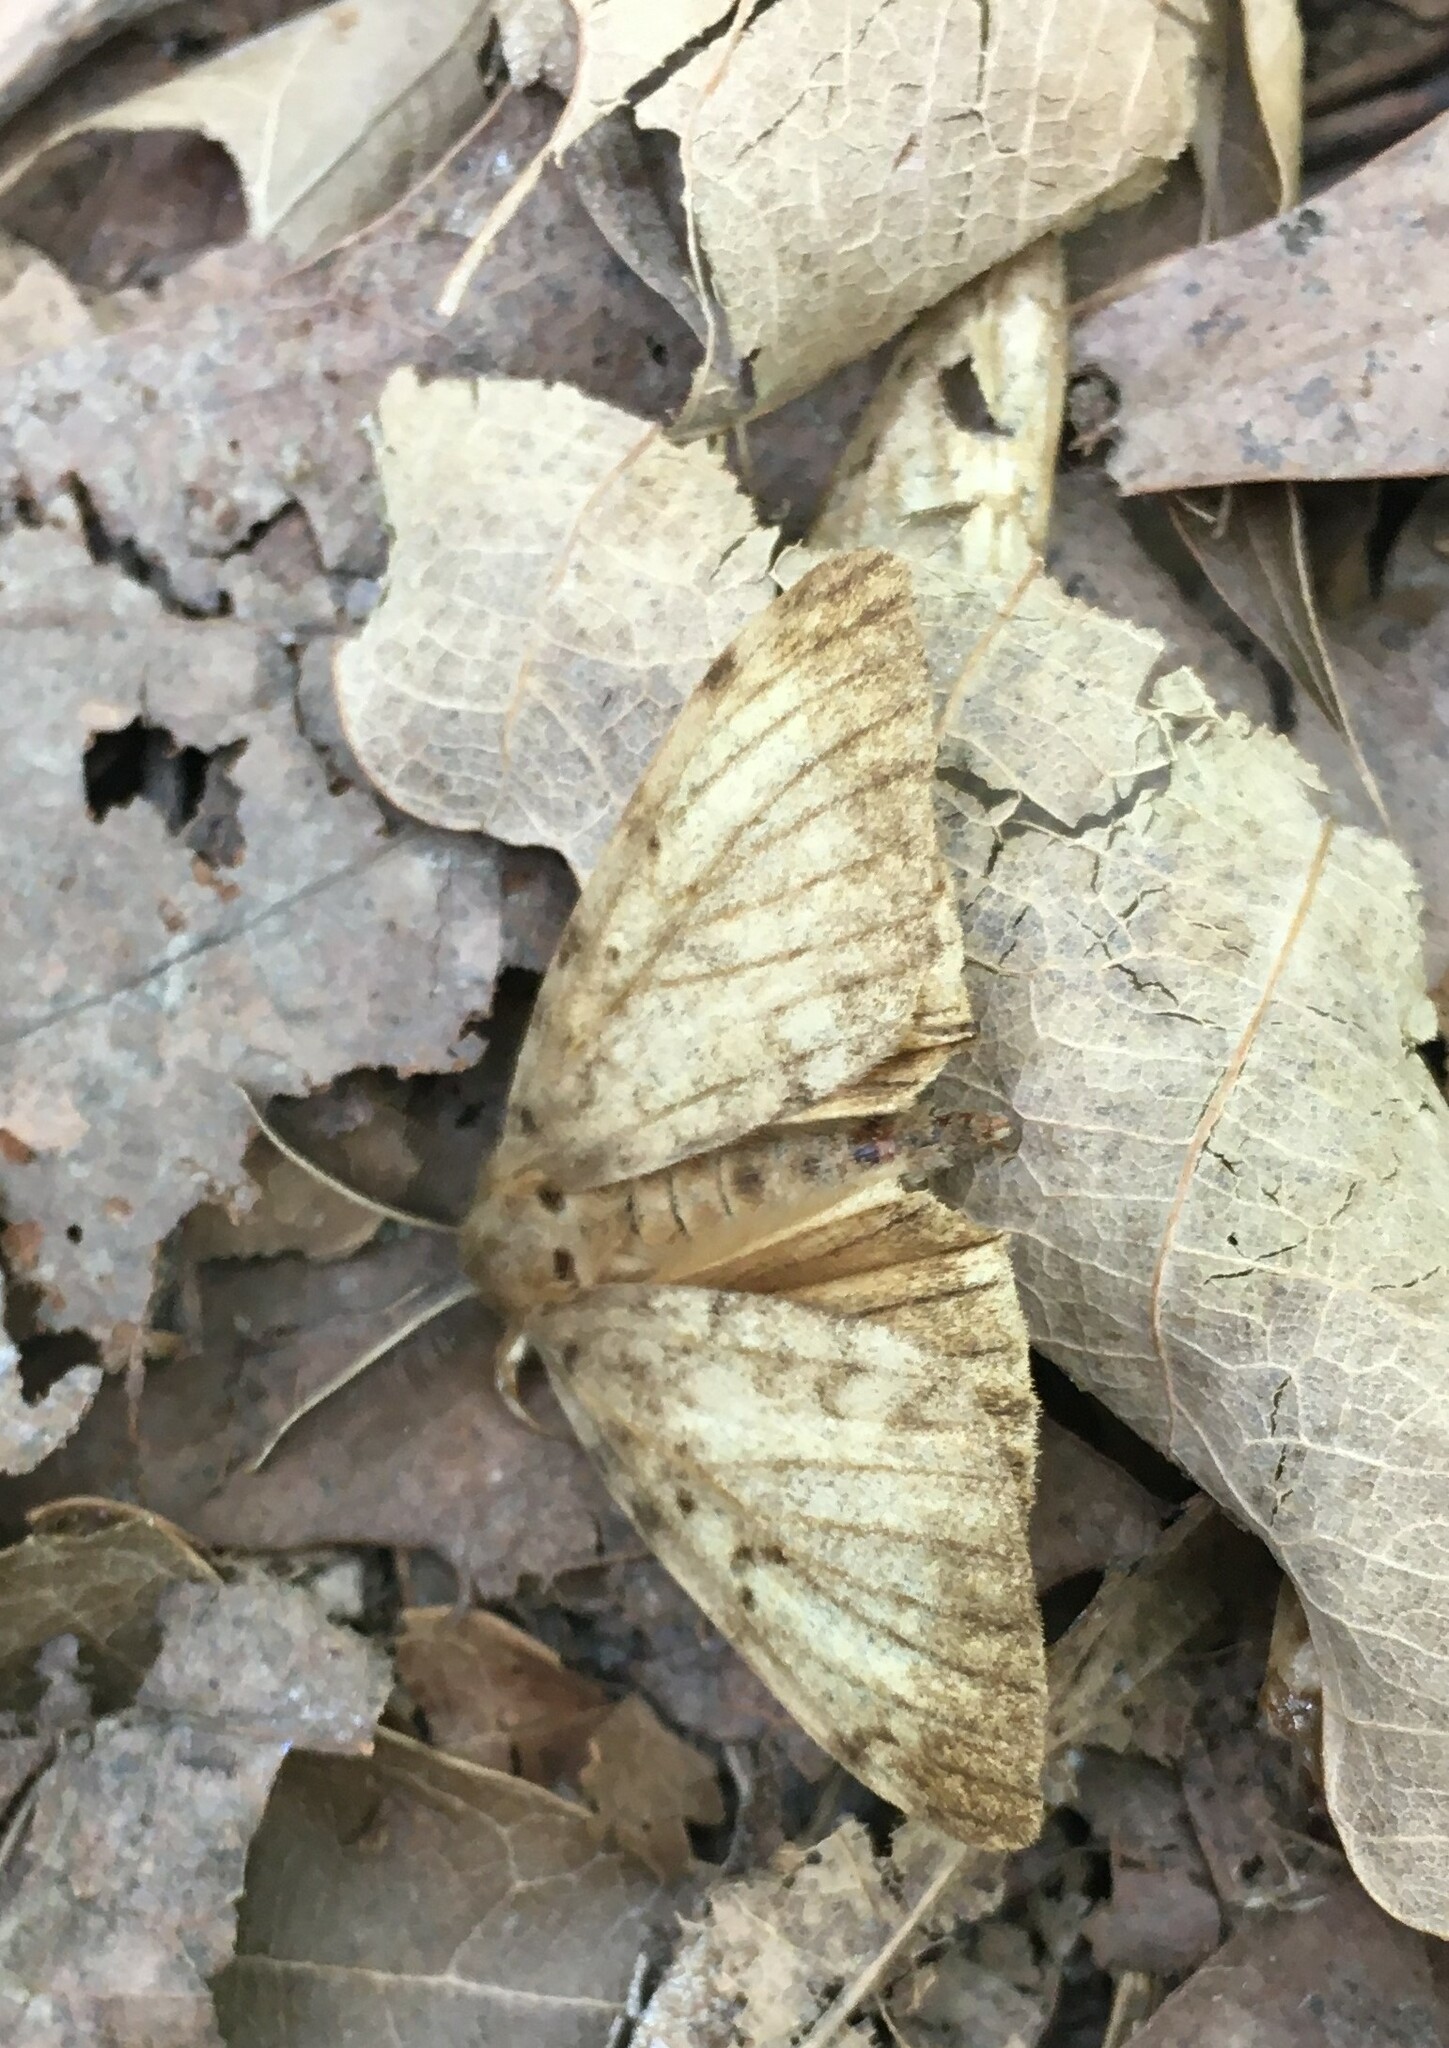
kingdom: Animalia
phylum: Arthropoda
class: Insecta
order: Lepidoptera
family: Erebidae
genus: Lymantria
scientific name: Lymantria dispar
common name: Gypsy moth
